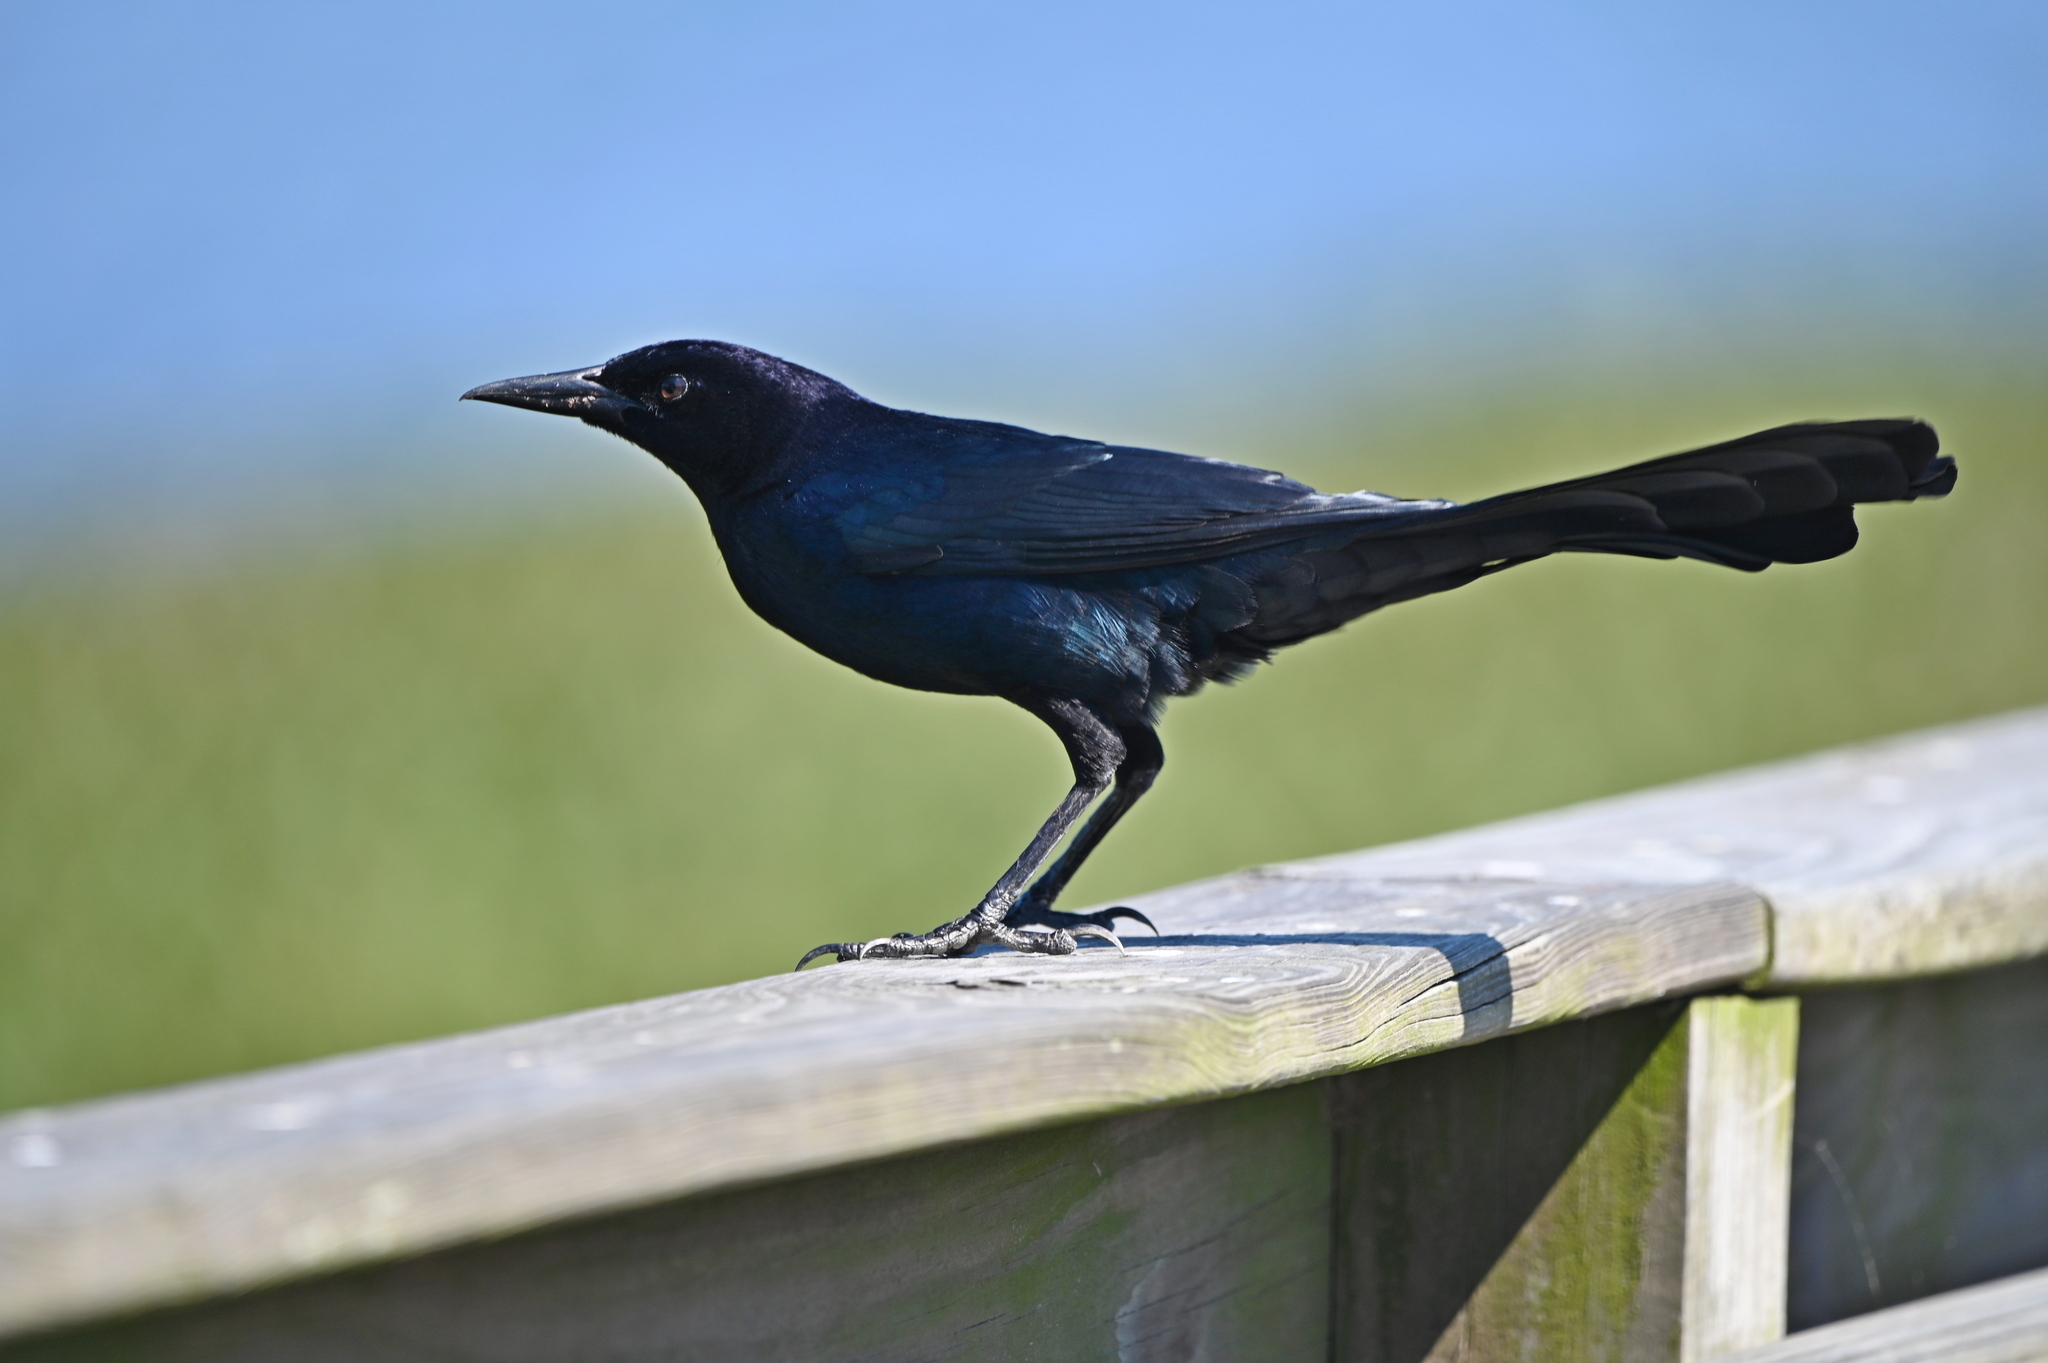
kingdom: Animalia
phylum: Chordata
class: Aves
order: Passeriformes
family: Icteridae
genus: Quiscalus
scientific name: Quiscalus major
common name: Boat-tailed grackle
